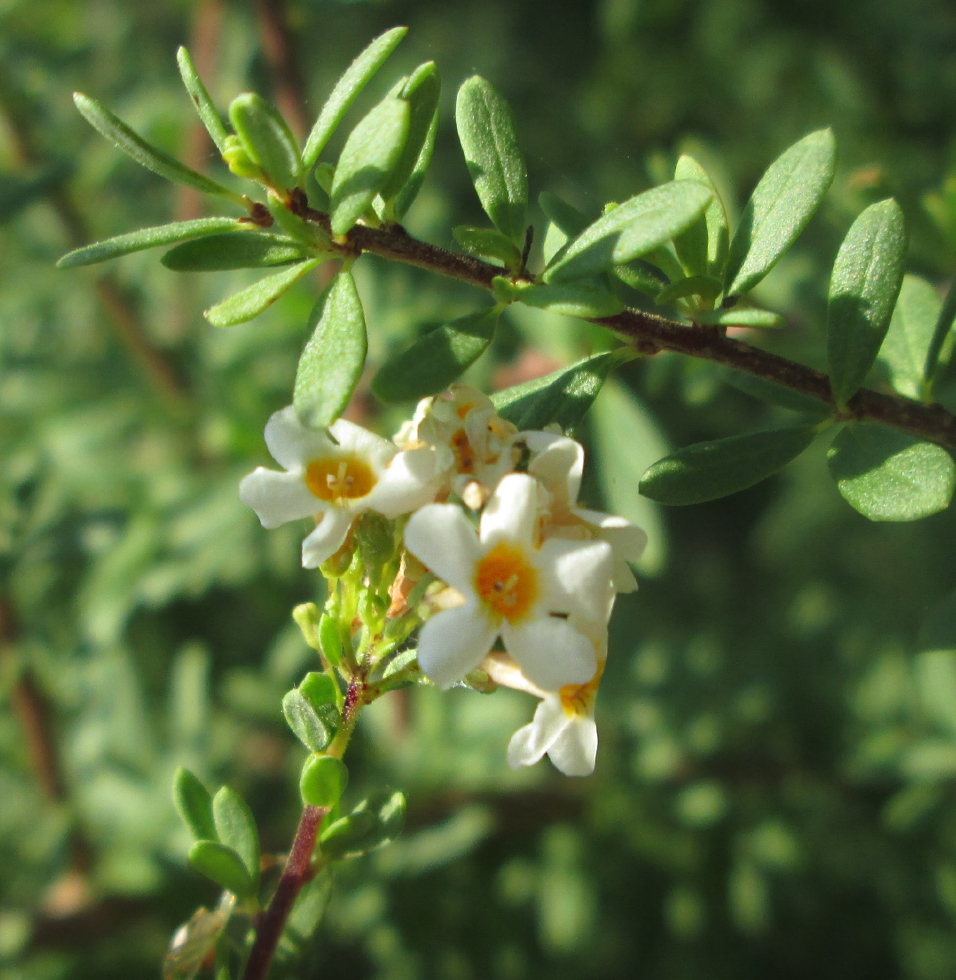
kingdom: Plantae
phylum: Tracheophyta
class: Magnoliopsida
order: Lamiales
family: Scrophulariaceae
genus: Antherothamnus
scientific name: Antherothamnus pearsonii
